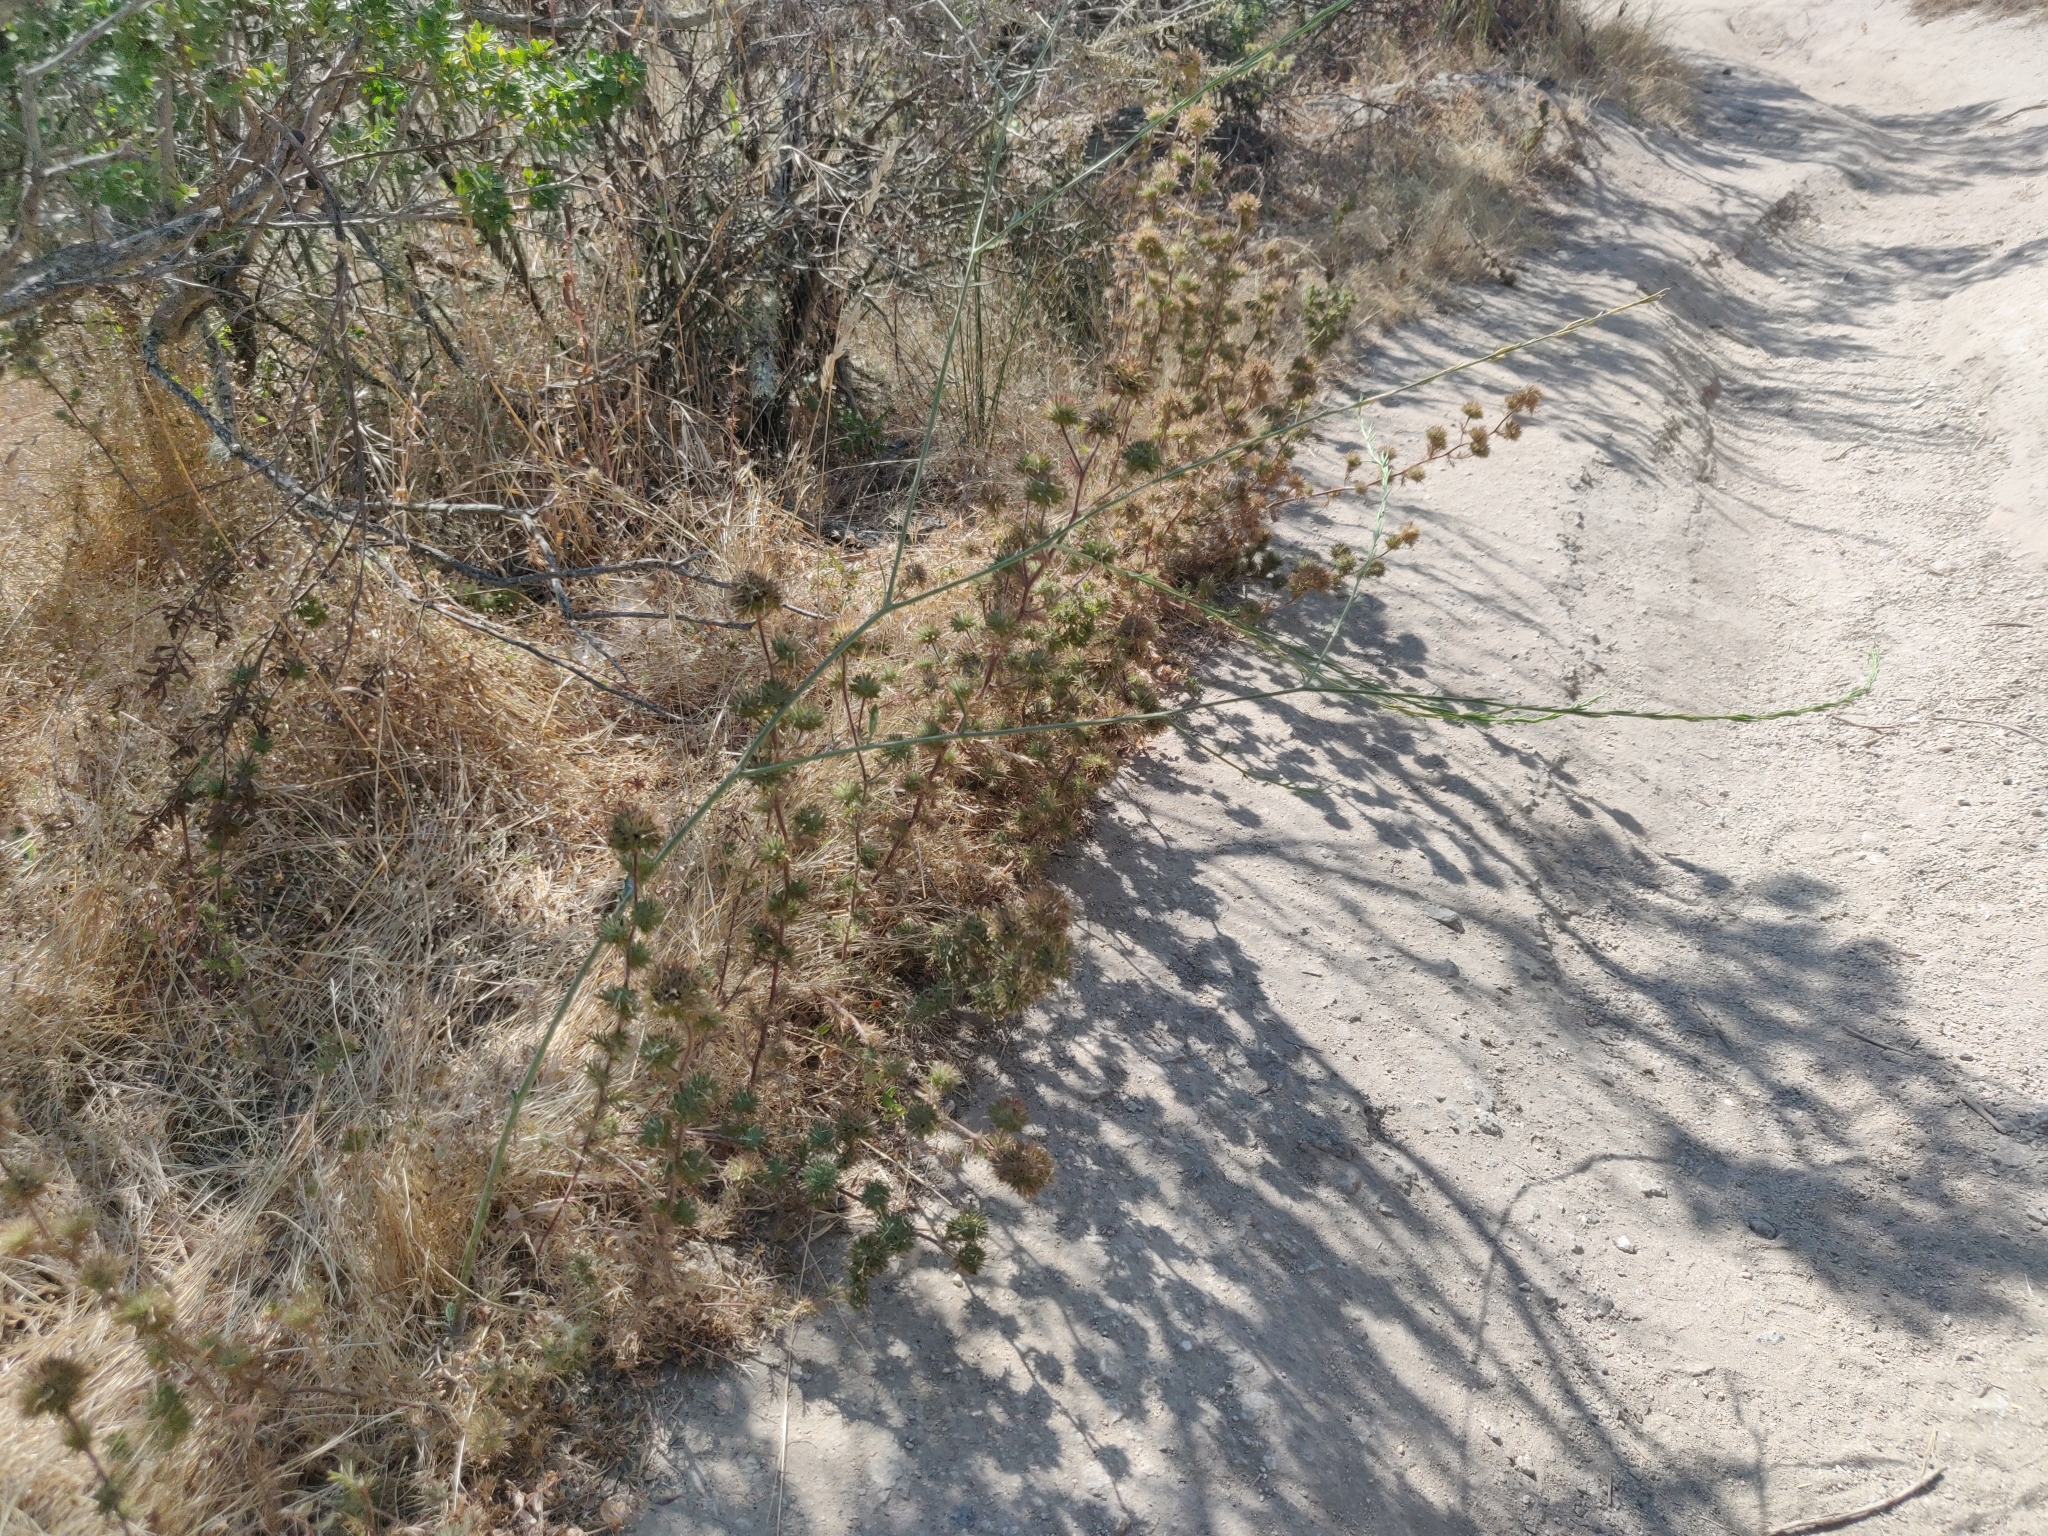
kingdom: Plantae
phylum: Tracheophyta
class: Magnoliopsida
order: Ericales
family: Polemoniaceae
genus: Navarretia
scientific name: Navarretia squarrosa
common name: Skunkweed
